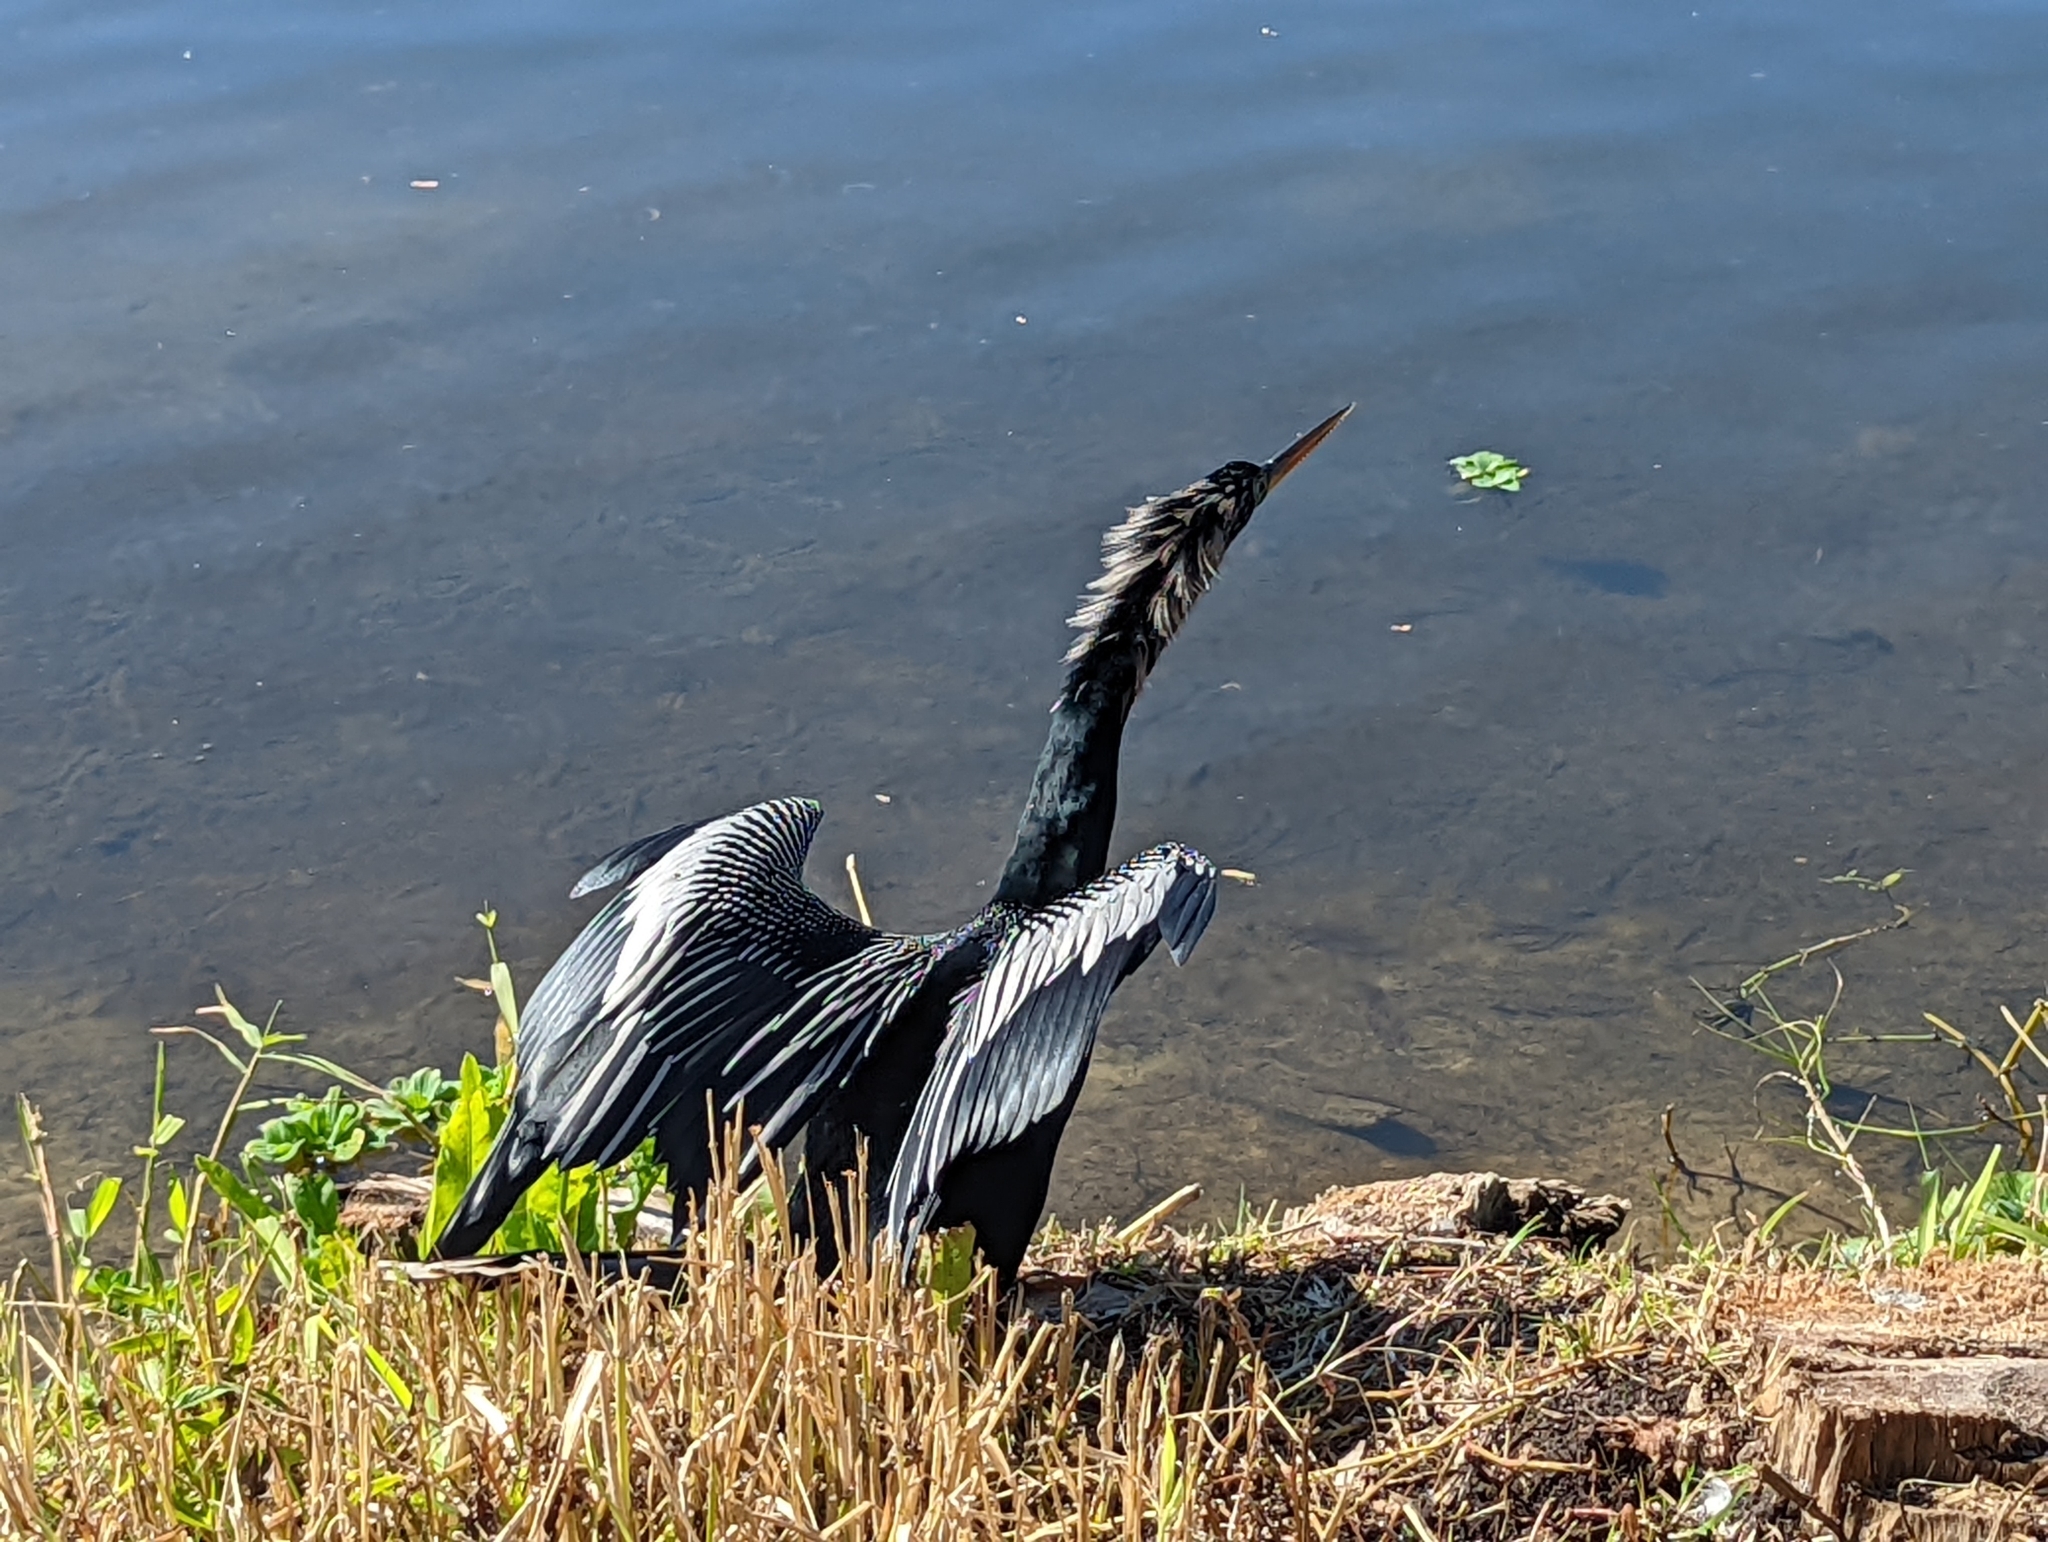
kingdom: Animalia
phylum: Chordata
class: Aves
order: Suliformes
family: Anhingidae
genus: Anhinga
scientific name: Anhinga anhinga
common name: Anhinga
